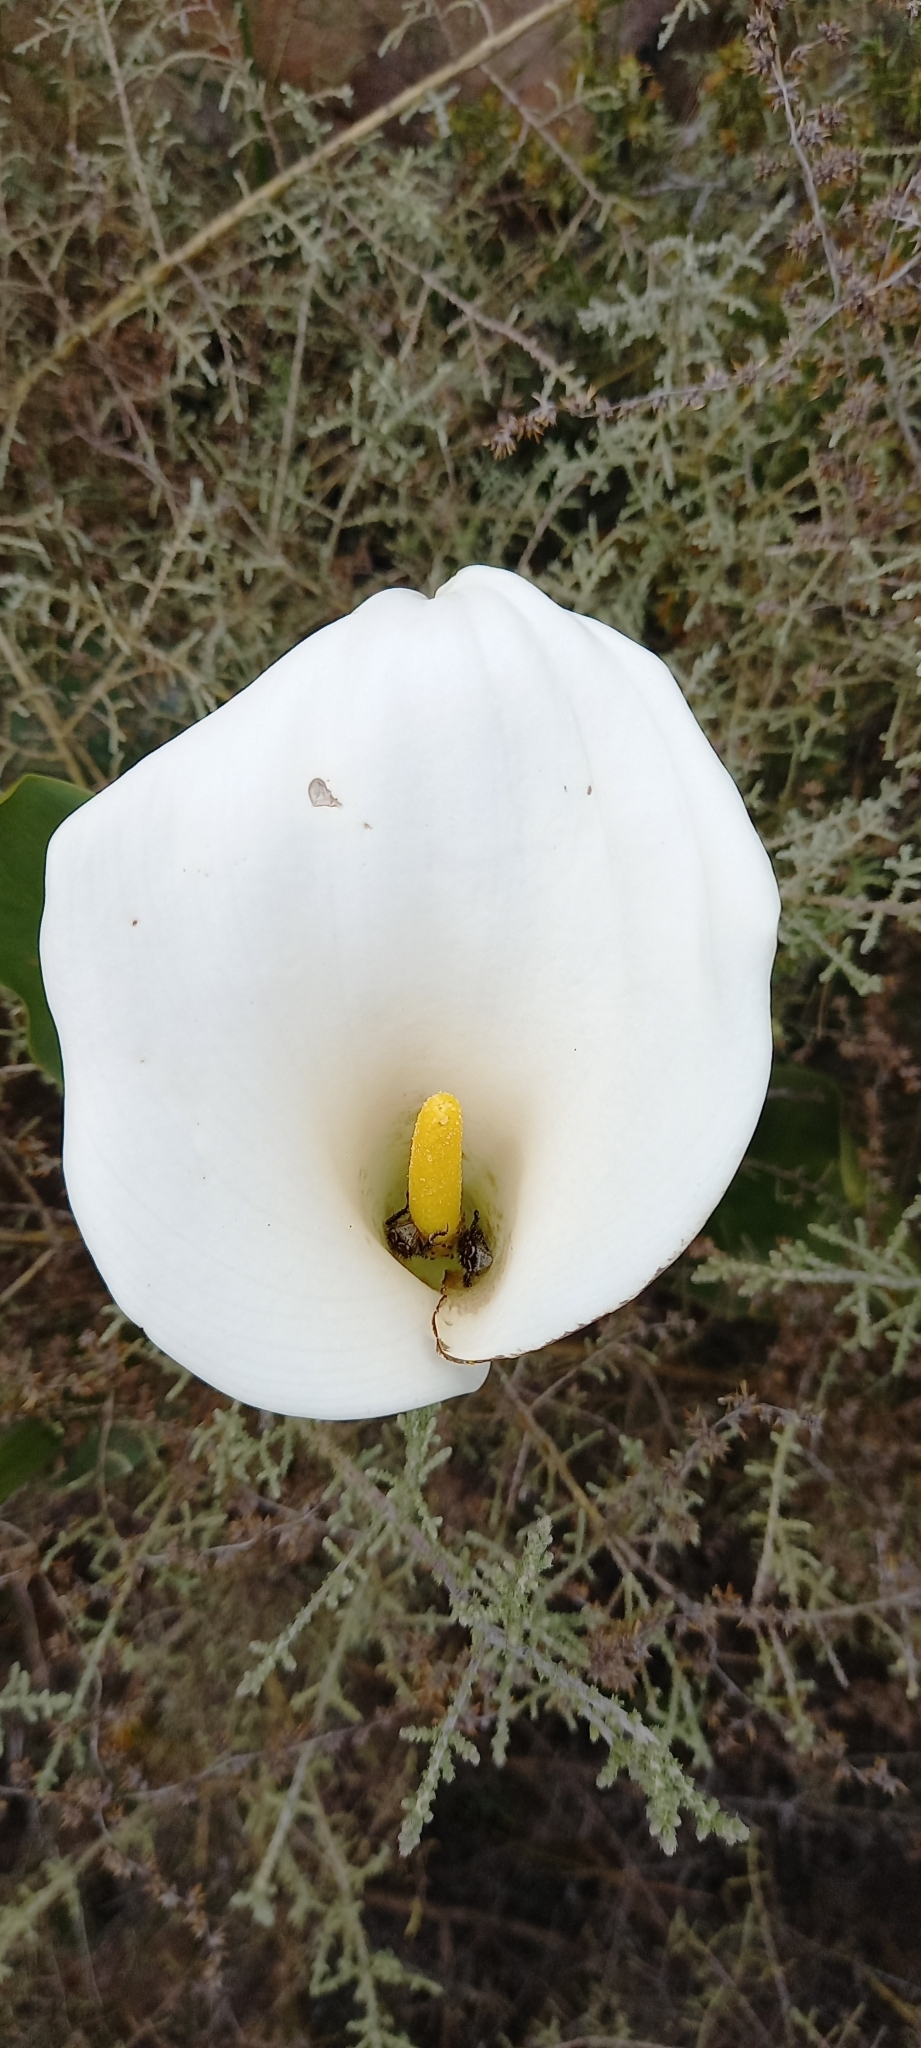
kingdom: Plantae
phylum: Tracheophyta
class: Liliopsida
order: Alismatales
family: Araceae
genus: Zantedeschia
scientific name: Zantedeschia aethiopica
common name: Altar-lily
